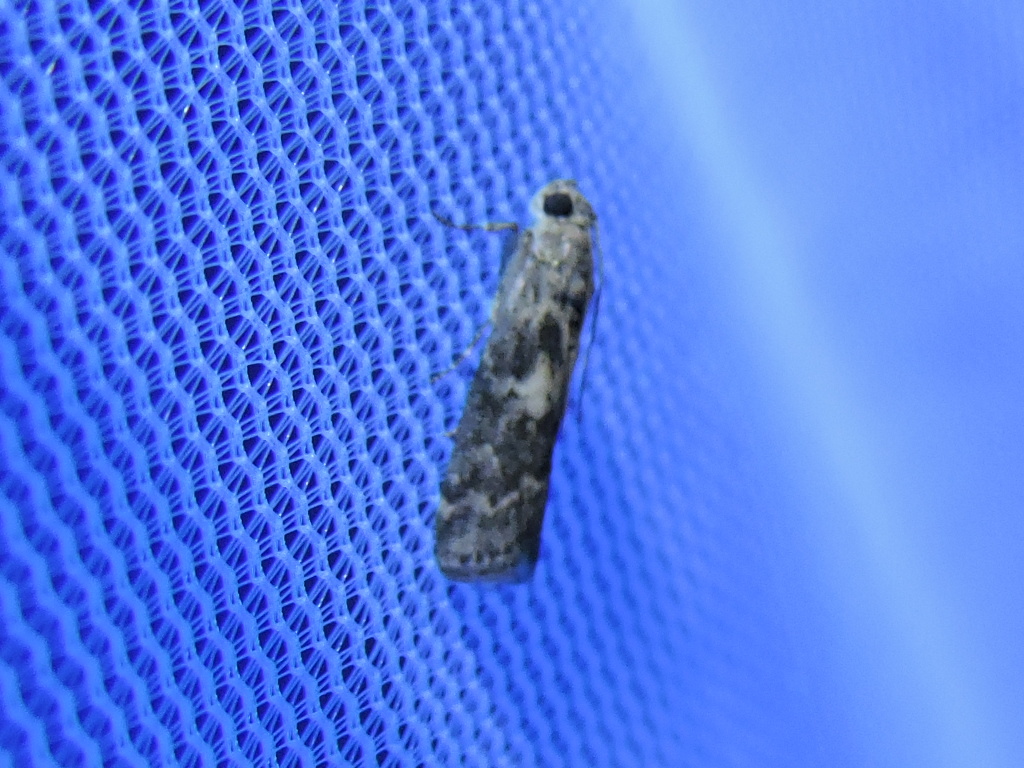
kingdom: Animalia
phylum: Arthropoda
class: Insecta
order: Lepidoptera
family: Pyralidae
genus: Tacoma
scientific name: Tacoma feriella
